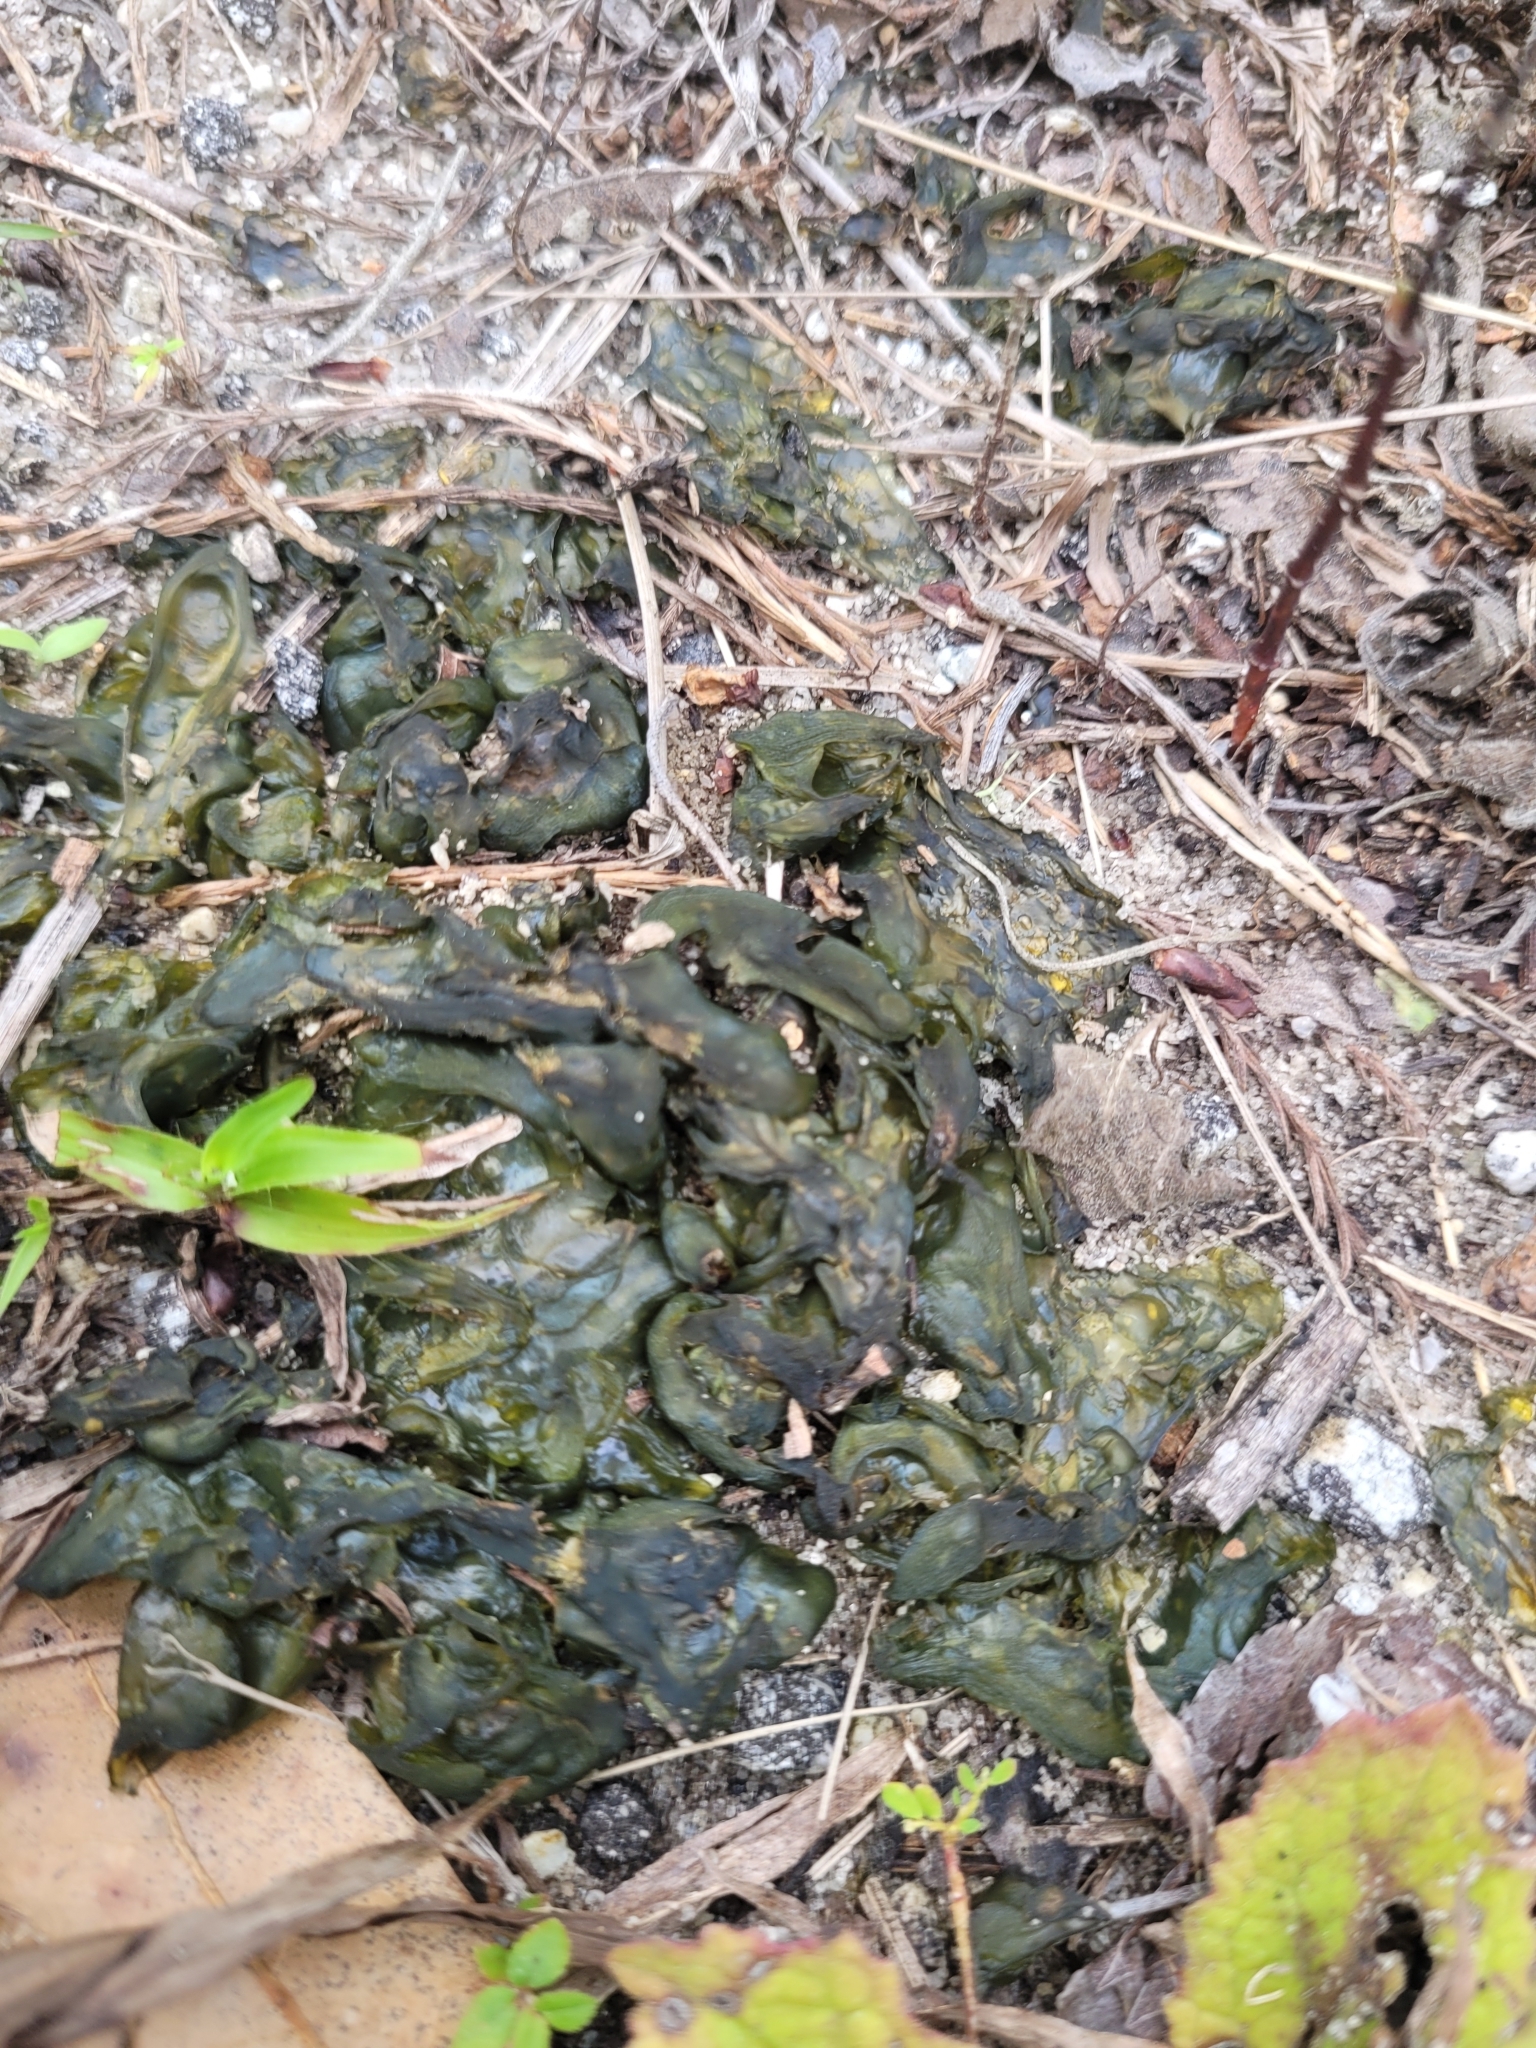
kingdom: Bacteria
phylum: Cyanobacteria
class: Cyanobacteriia
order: Cyanobacteriales
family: Nostocaceae
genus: Nostoc
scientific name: Nostoc commune
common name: Star jelly
